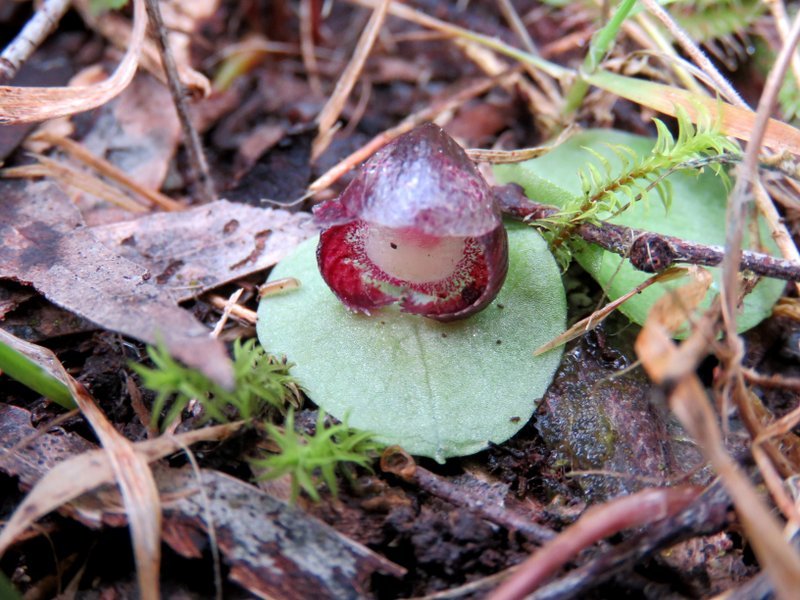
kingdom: Plantae
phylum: Tracheophyta
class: Liliopsida
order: Asparagales
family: Orchidaceae
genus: Corybas
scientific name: Corybas incurvus
